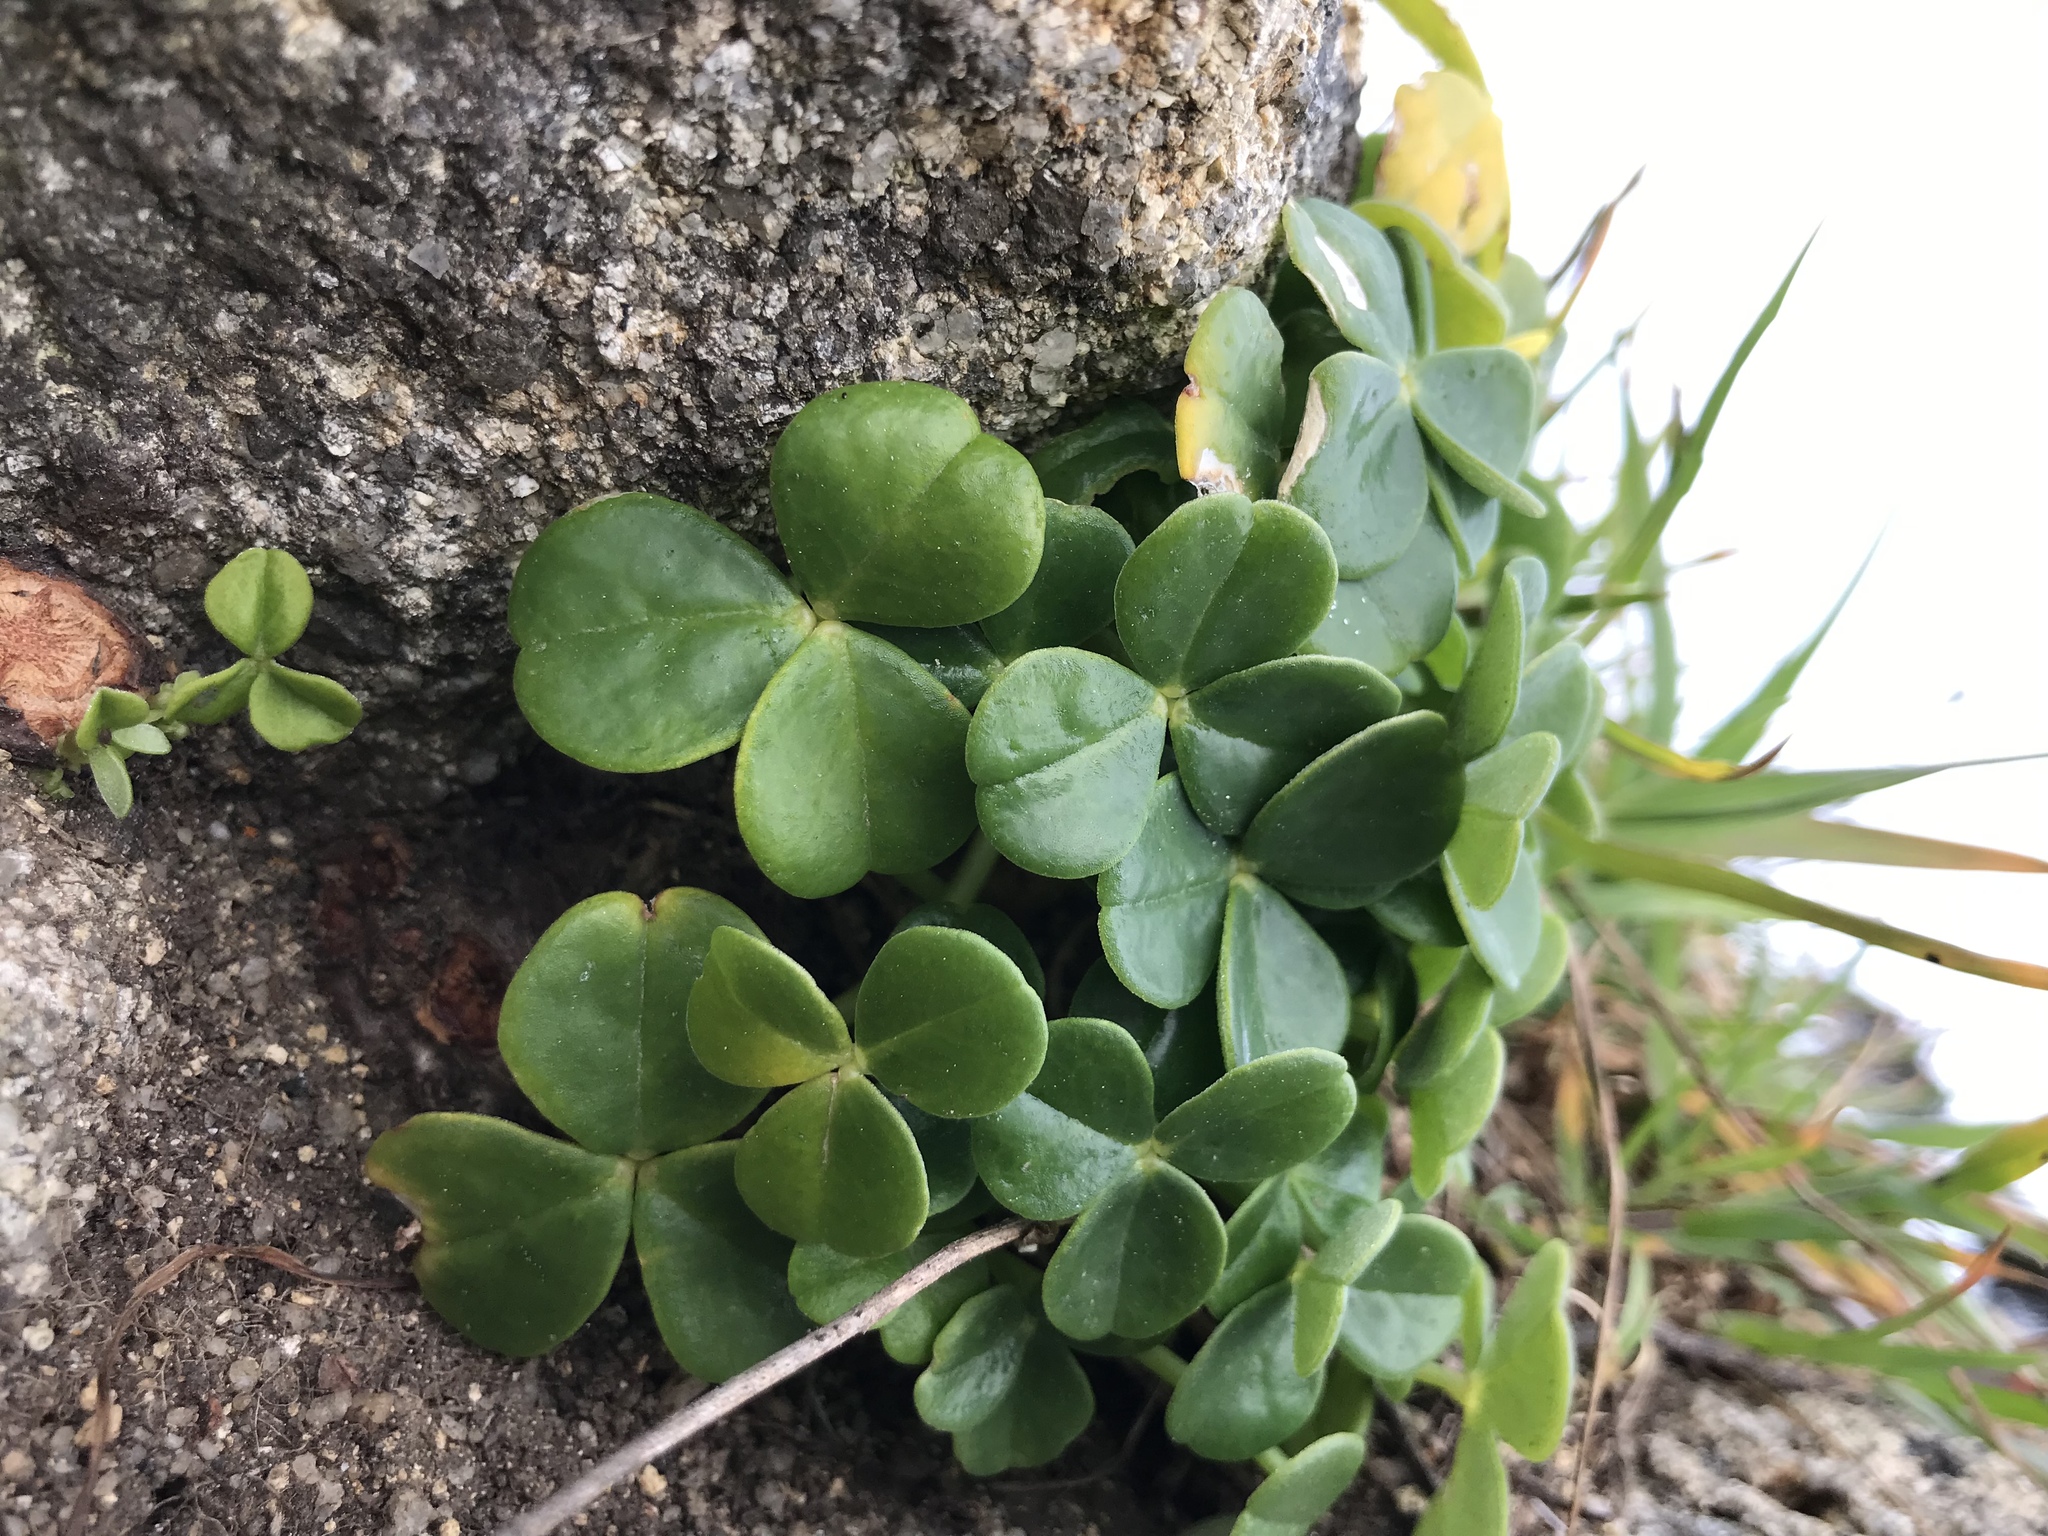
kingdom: Plantae
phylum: Tracheophyta
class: Magnoliopsida
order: Oxalidales
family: Oxalidaceae
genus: Oxalis
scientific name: Oxalis megalorrhiza
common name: Fleshy yellow-sorrel
